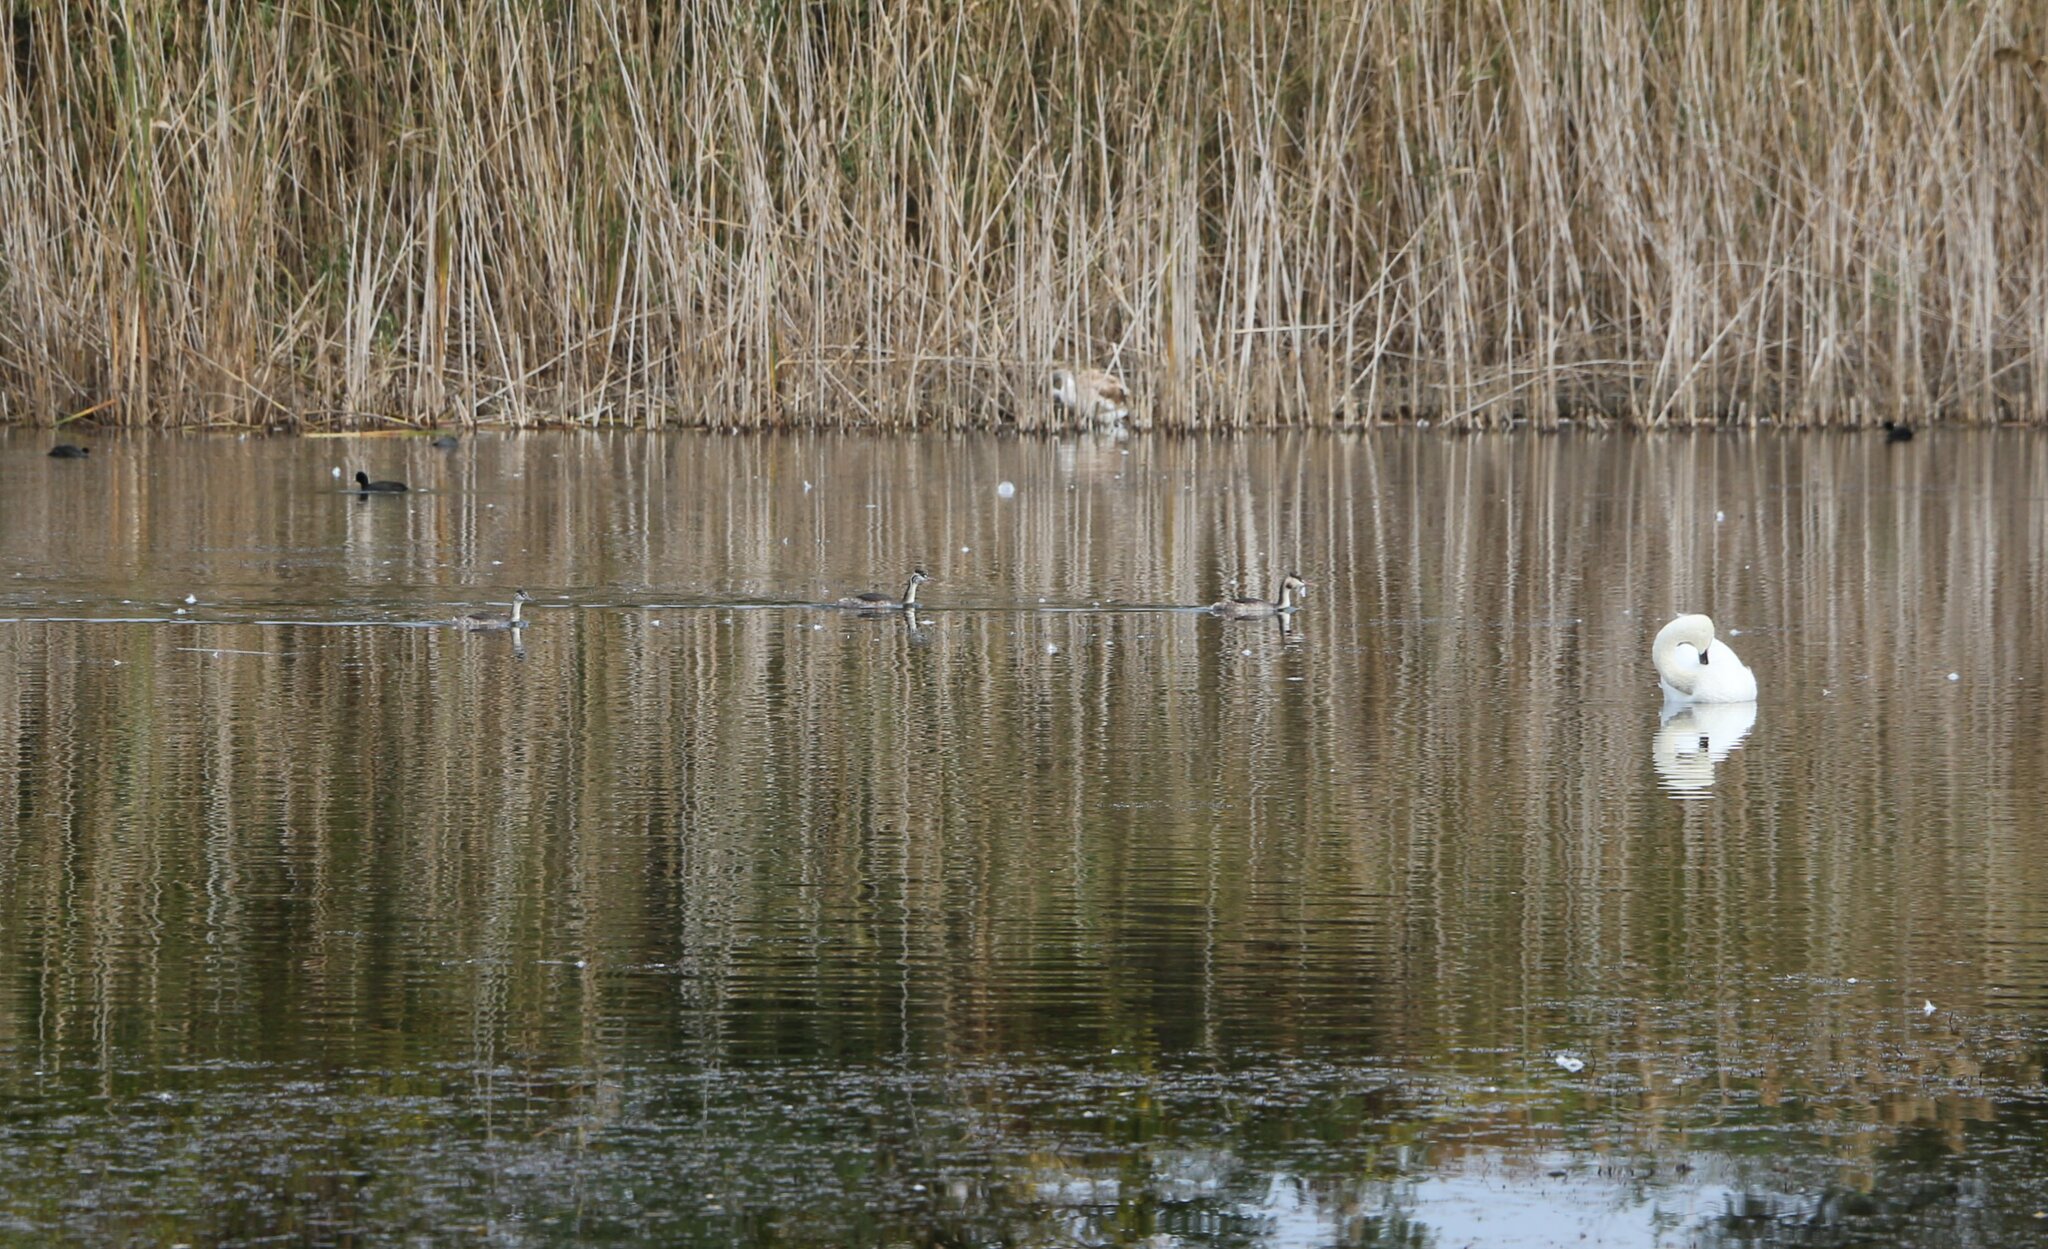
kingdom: Animalia
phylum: Chordata
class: Aves
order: Podicipediformes
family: Podicipedidae
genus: Podiceps
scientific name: Podiceps cristatus
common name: Great crested grebe
